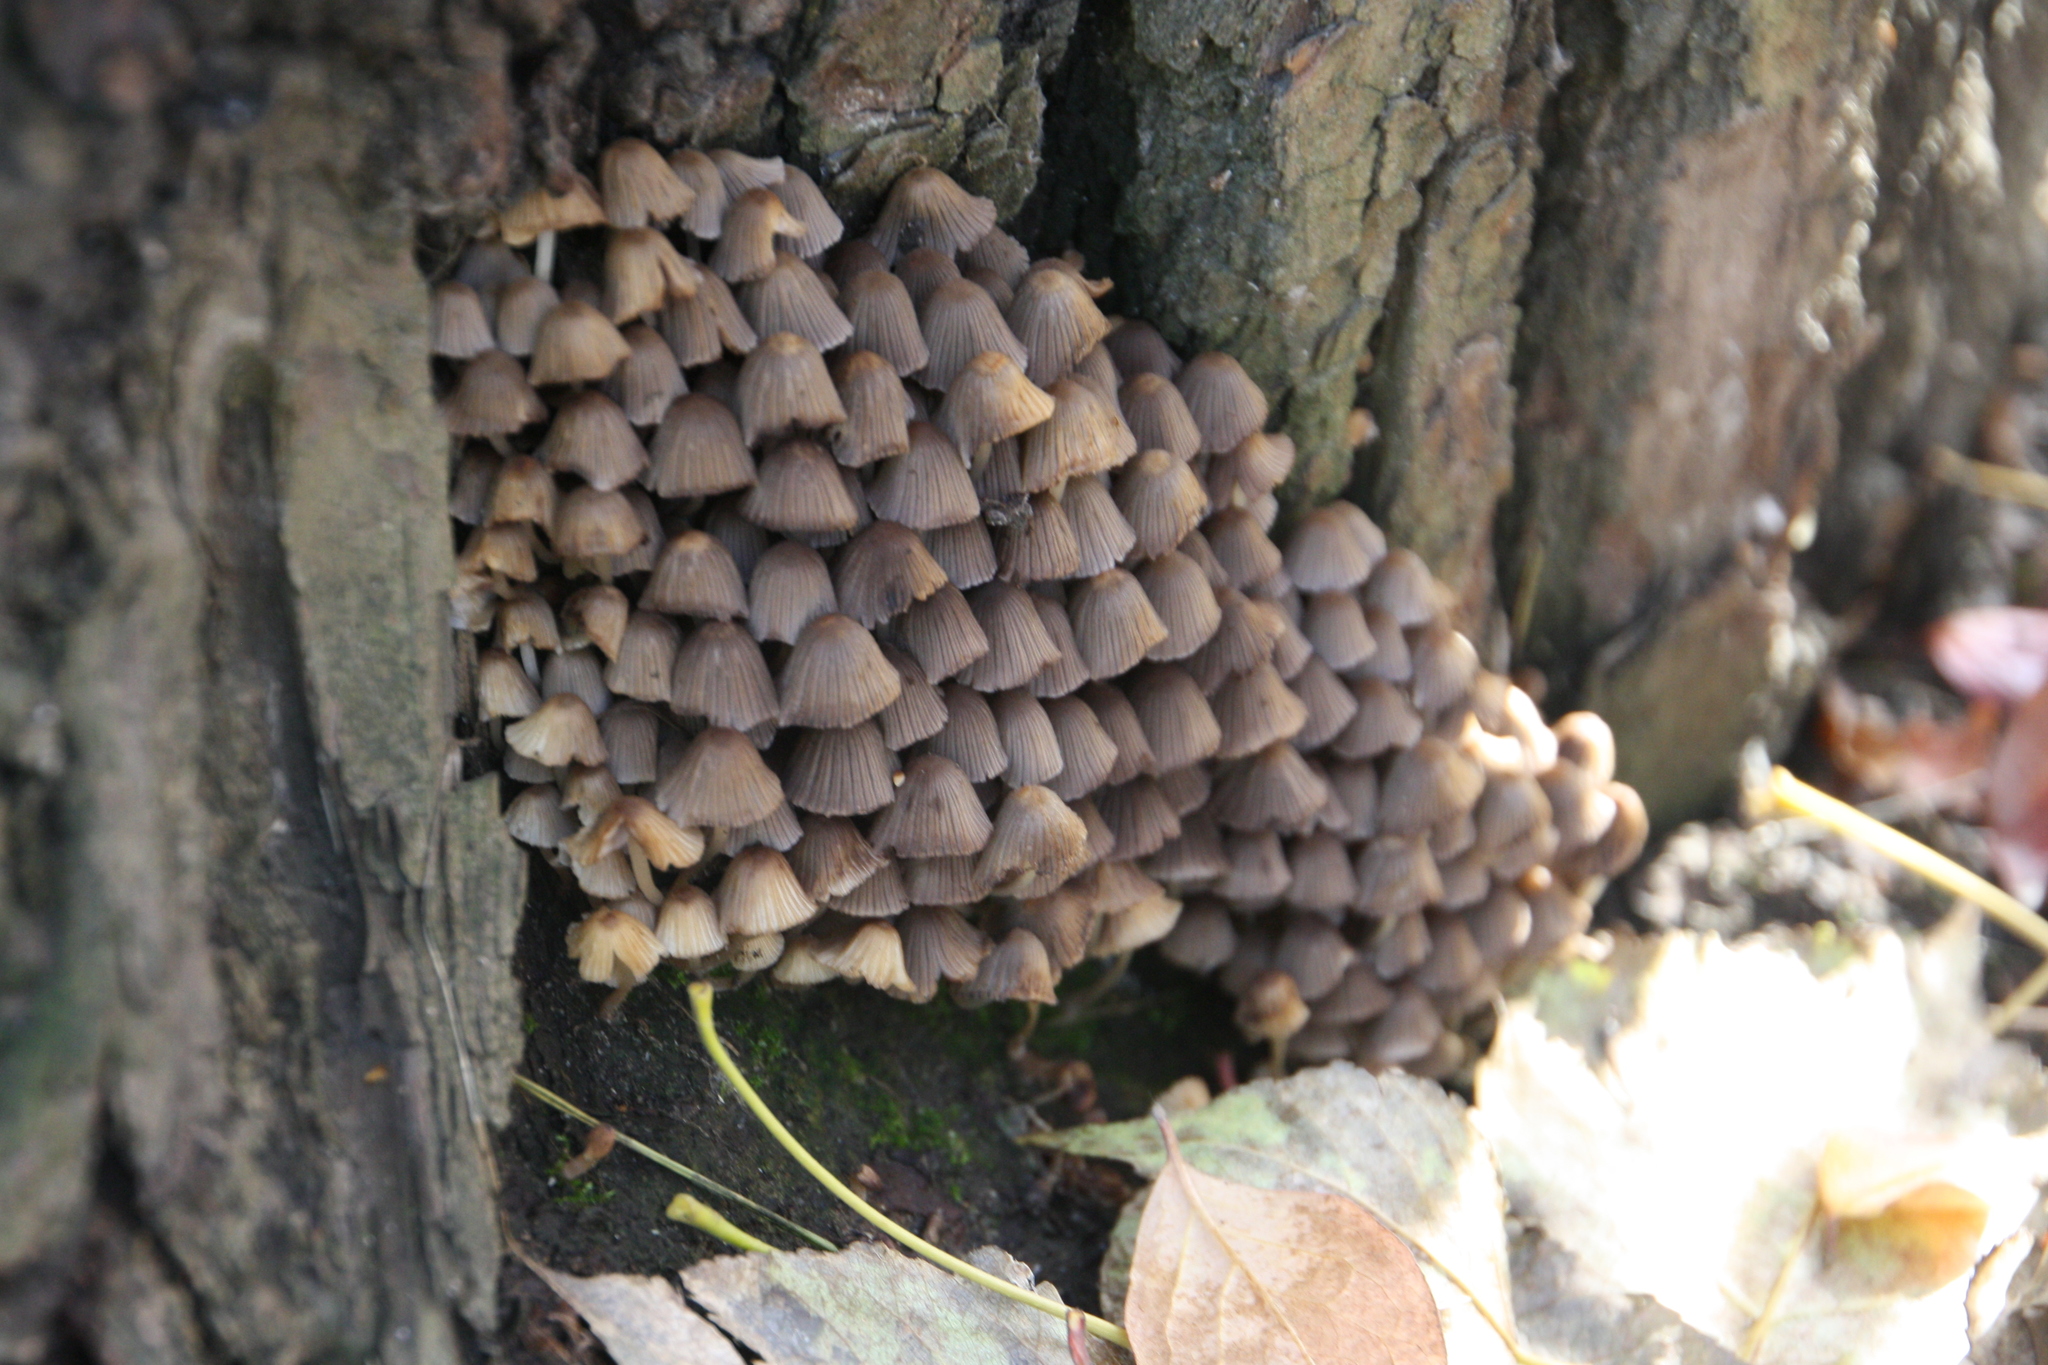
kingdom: Fungi
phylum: Basidiomycota
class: Agaricomycetes
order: Agaricales
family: Psathyrellaceae
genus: Coprinellus
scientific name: Coprinellus disseminatus
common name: Fairies' bonnets
